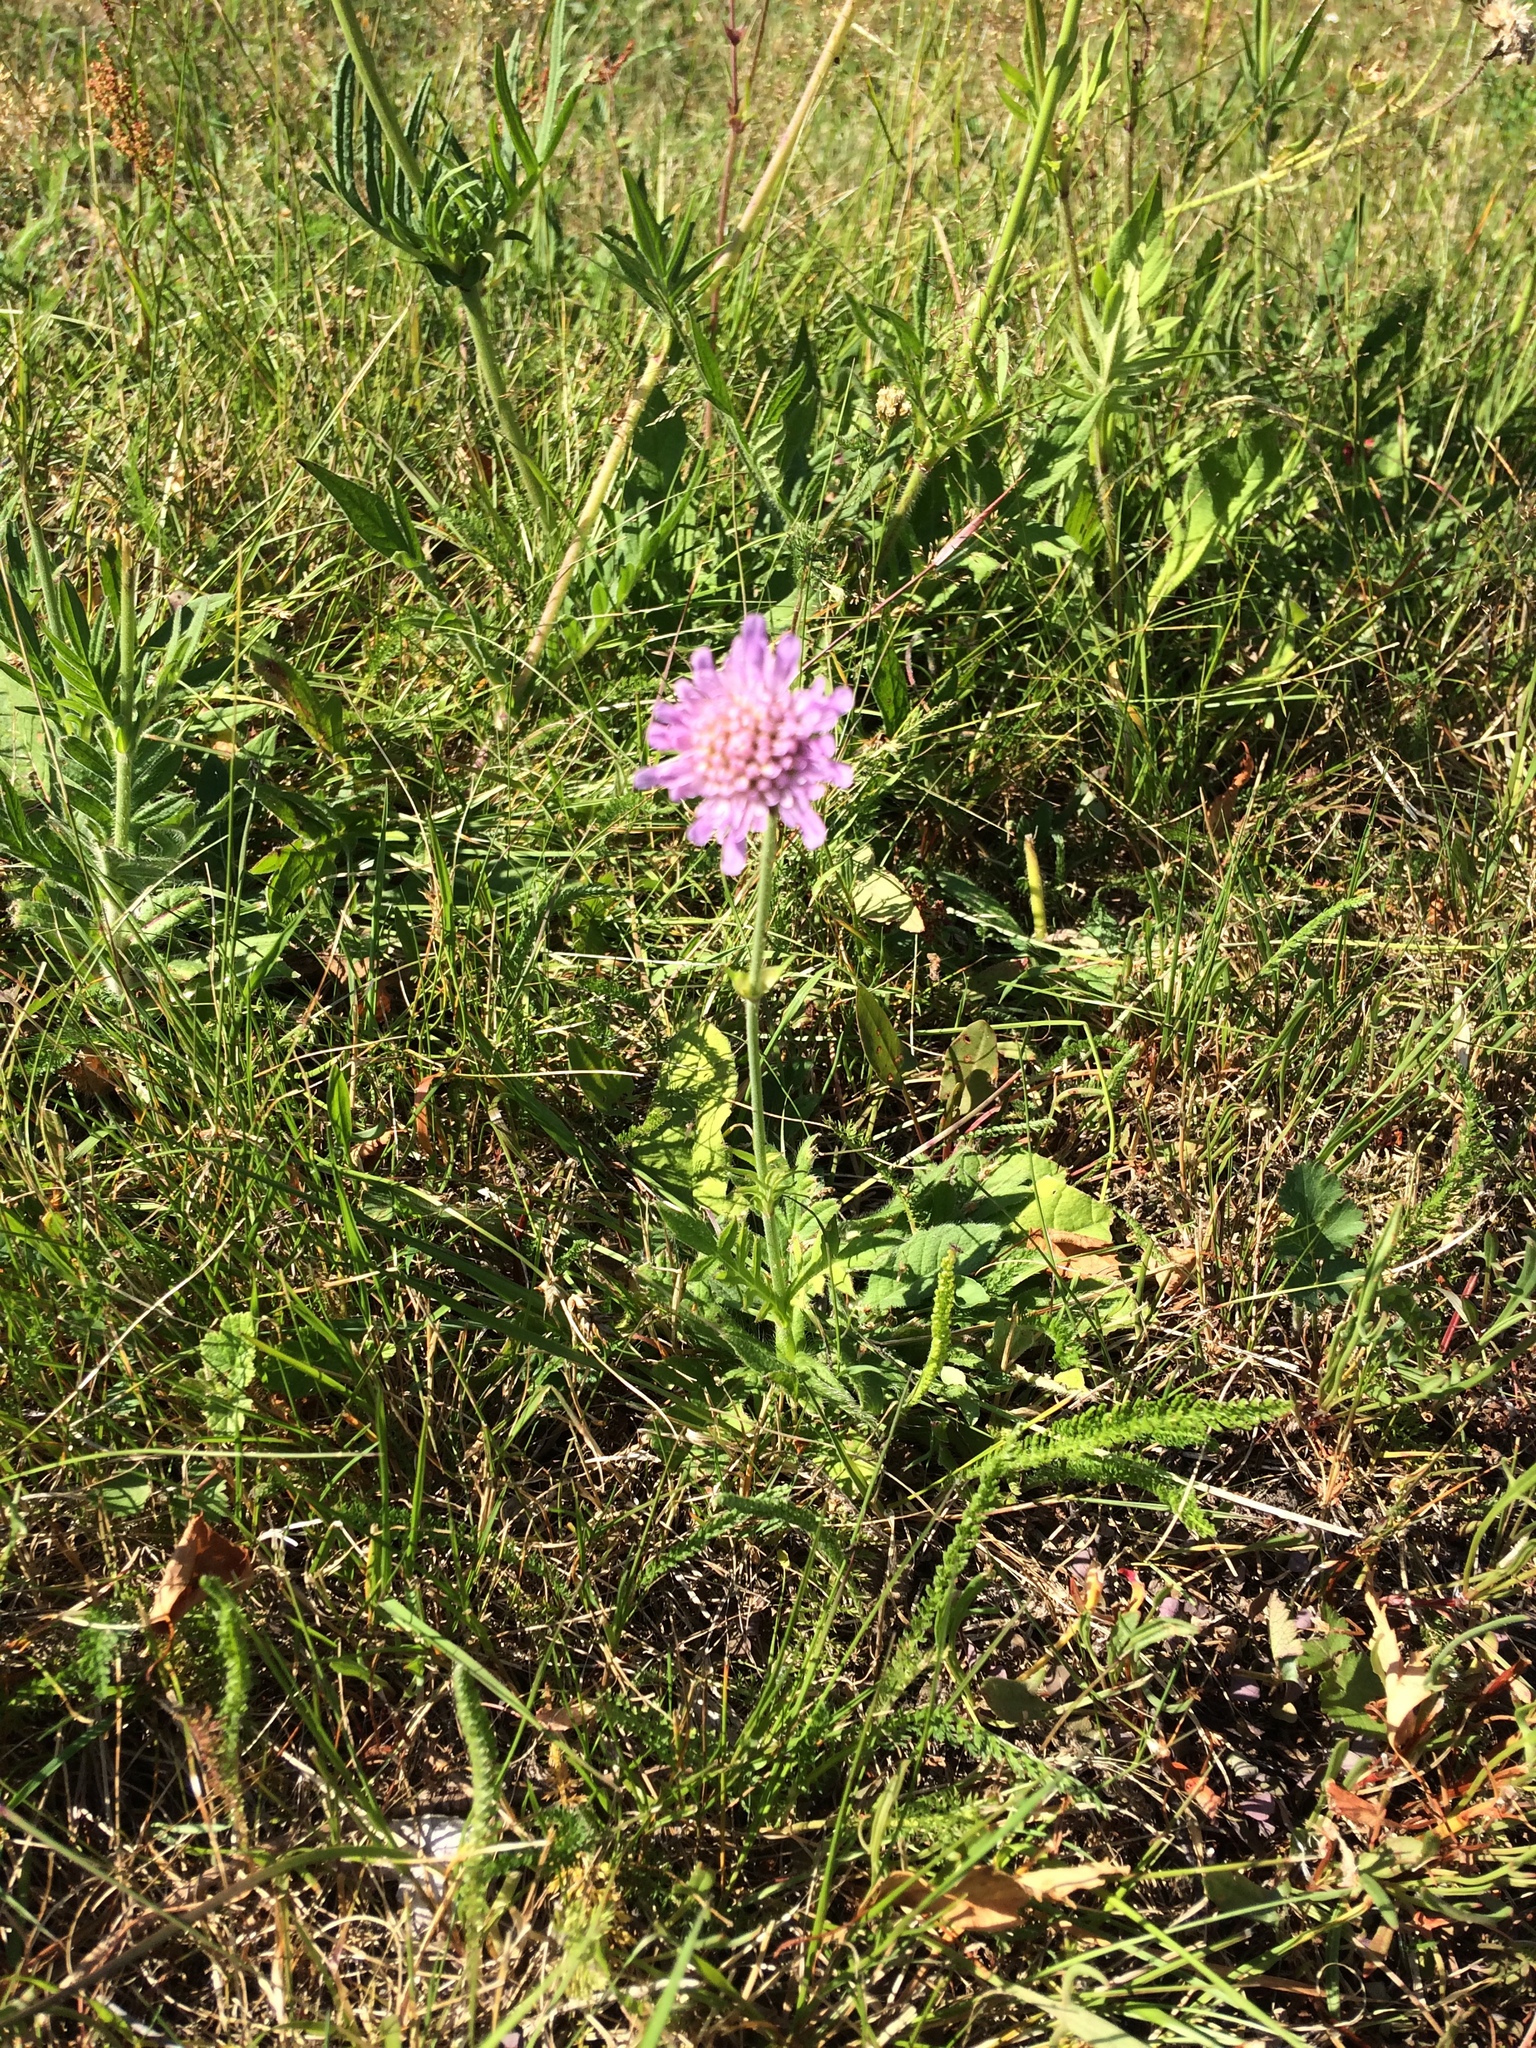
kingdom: Plantae
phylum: Tracheophyta
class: Magnoliopsida
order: Dipsacales
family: Caprifoliaceae
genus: Knautia
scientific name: Knautia arvensis
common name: Field scabiosa
